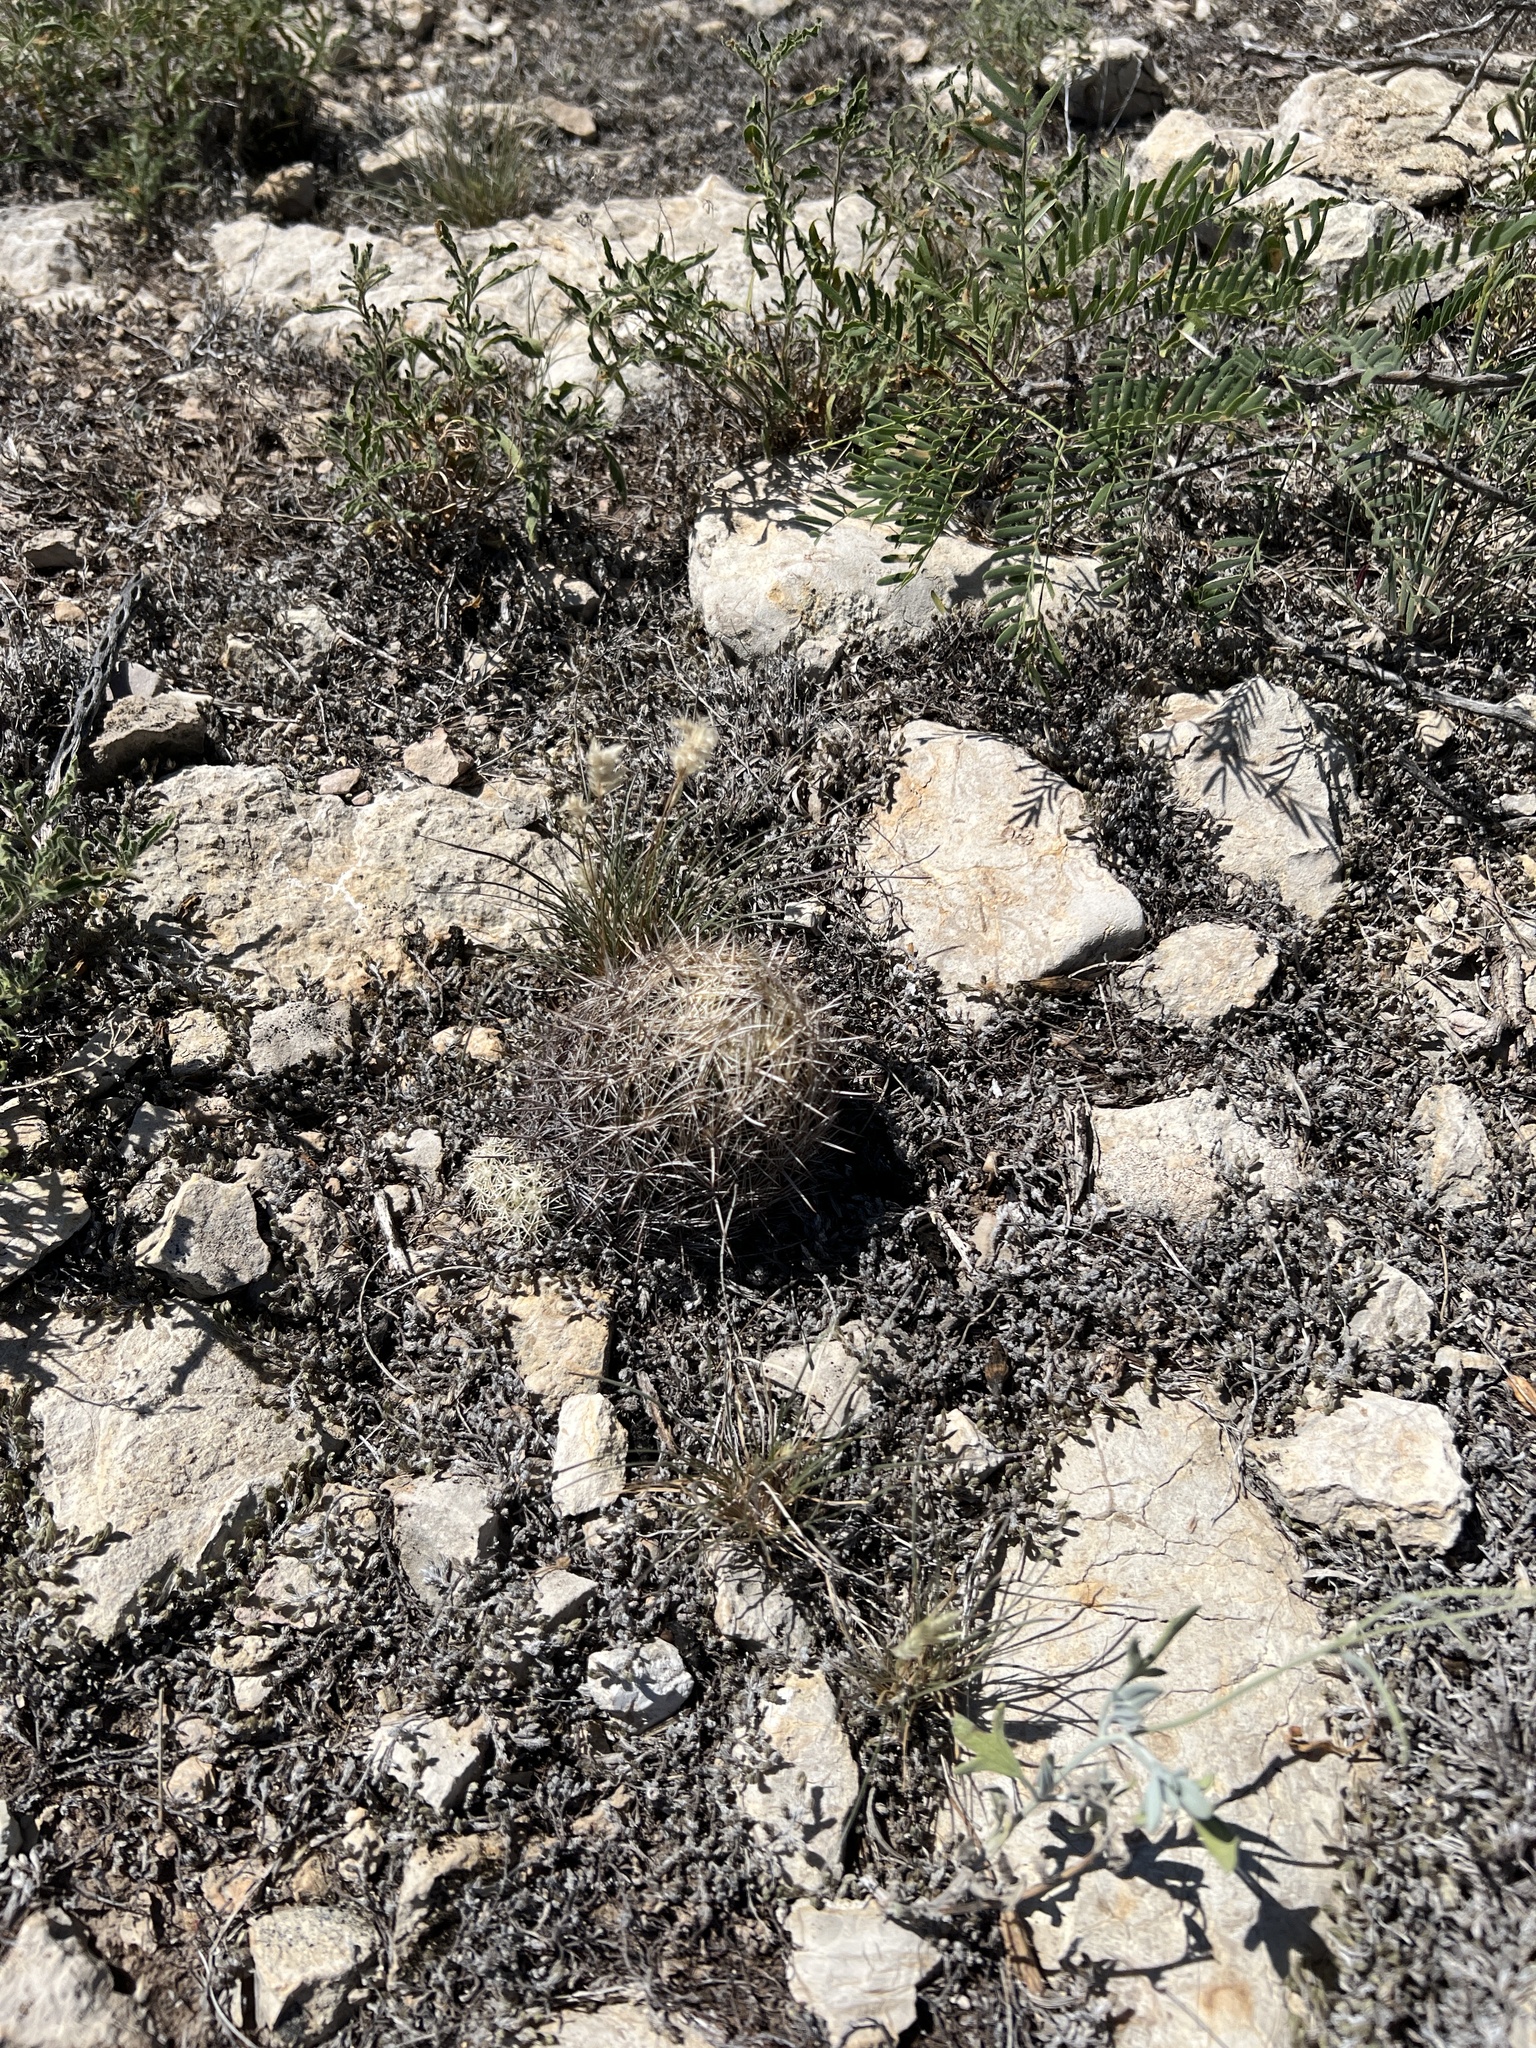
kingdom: Plantae
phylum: Tracheophyta
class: Magnoliopsida
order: Caryophyllales
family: Cactaceae
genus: Coryphantha
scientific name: Coryphantha echinus
